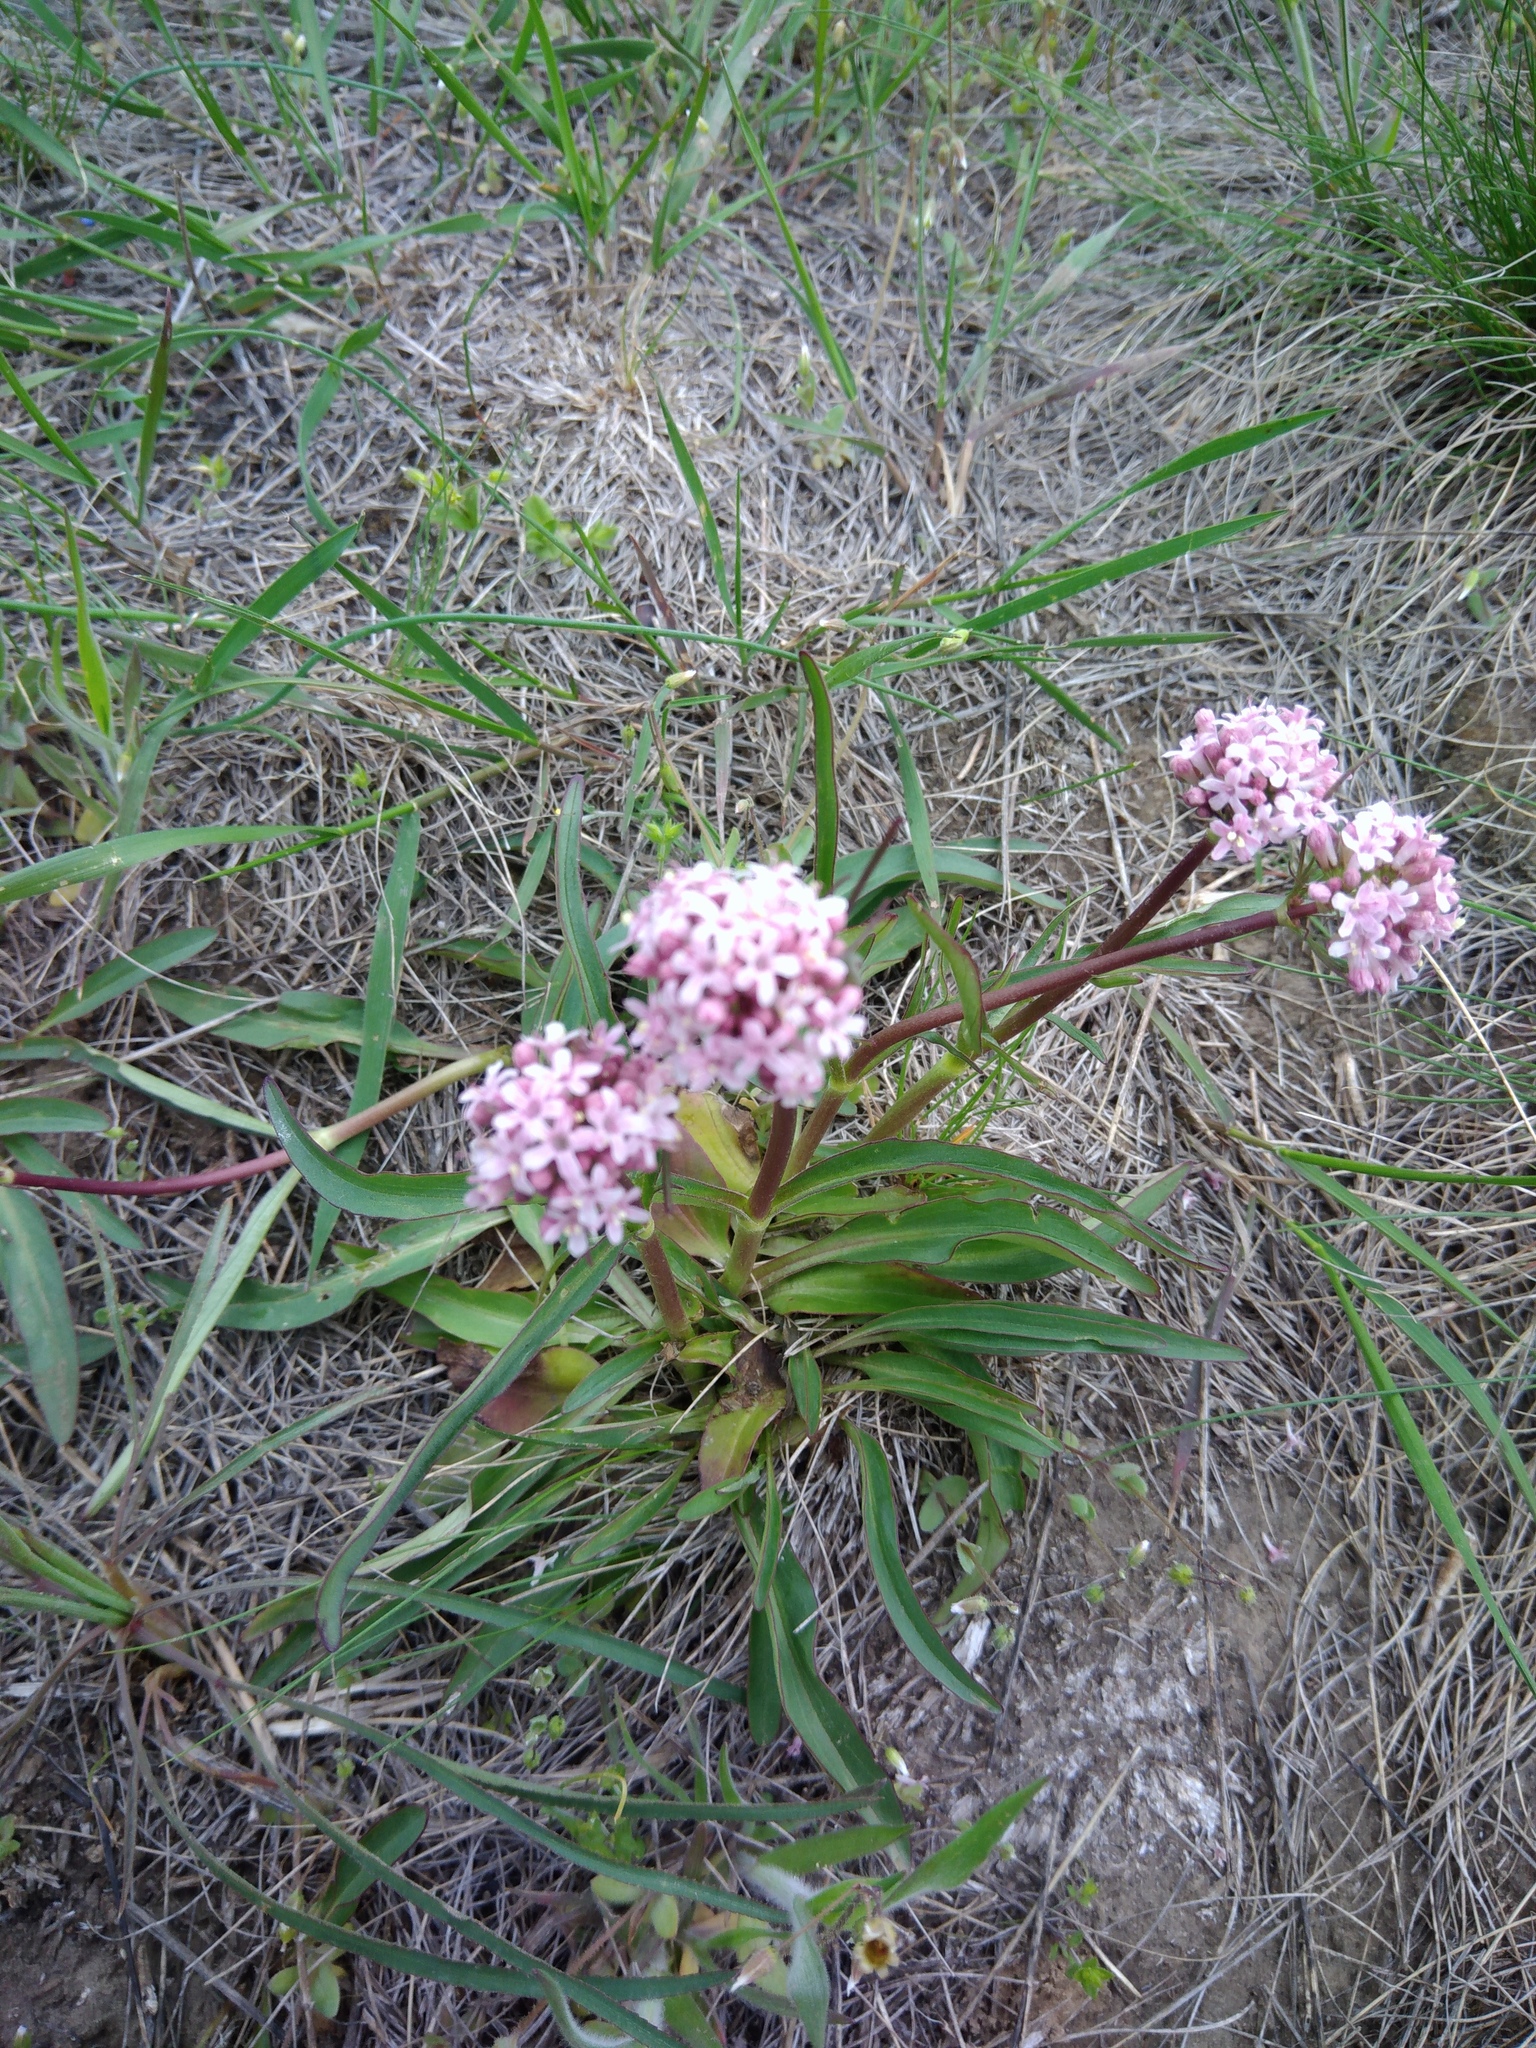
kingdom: Plantae
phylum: Tracheophyta
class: Magnoliopsida
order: Dipsacales
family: Caprifoliaceae
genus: Valeriana
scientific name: Valeriana tuberosa
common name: Tuberous valerian
